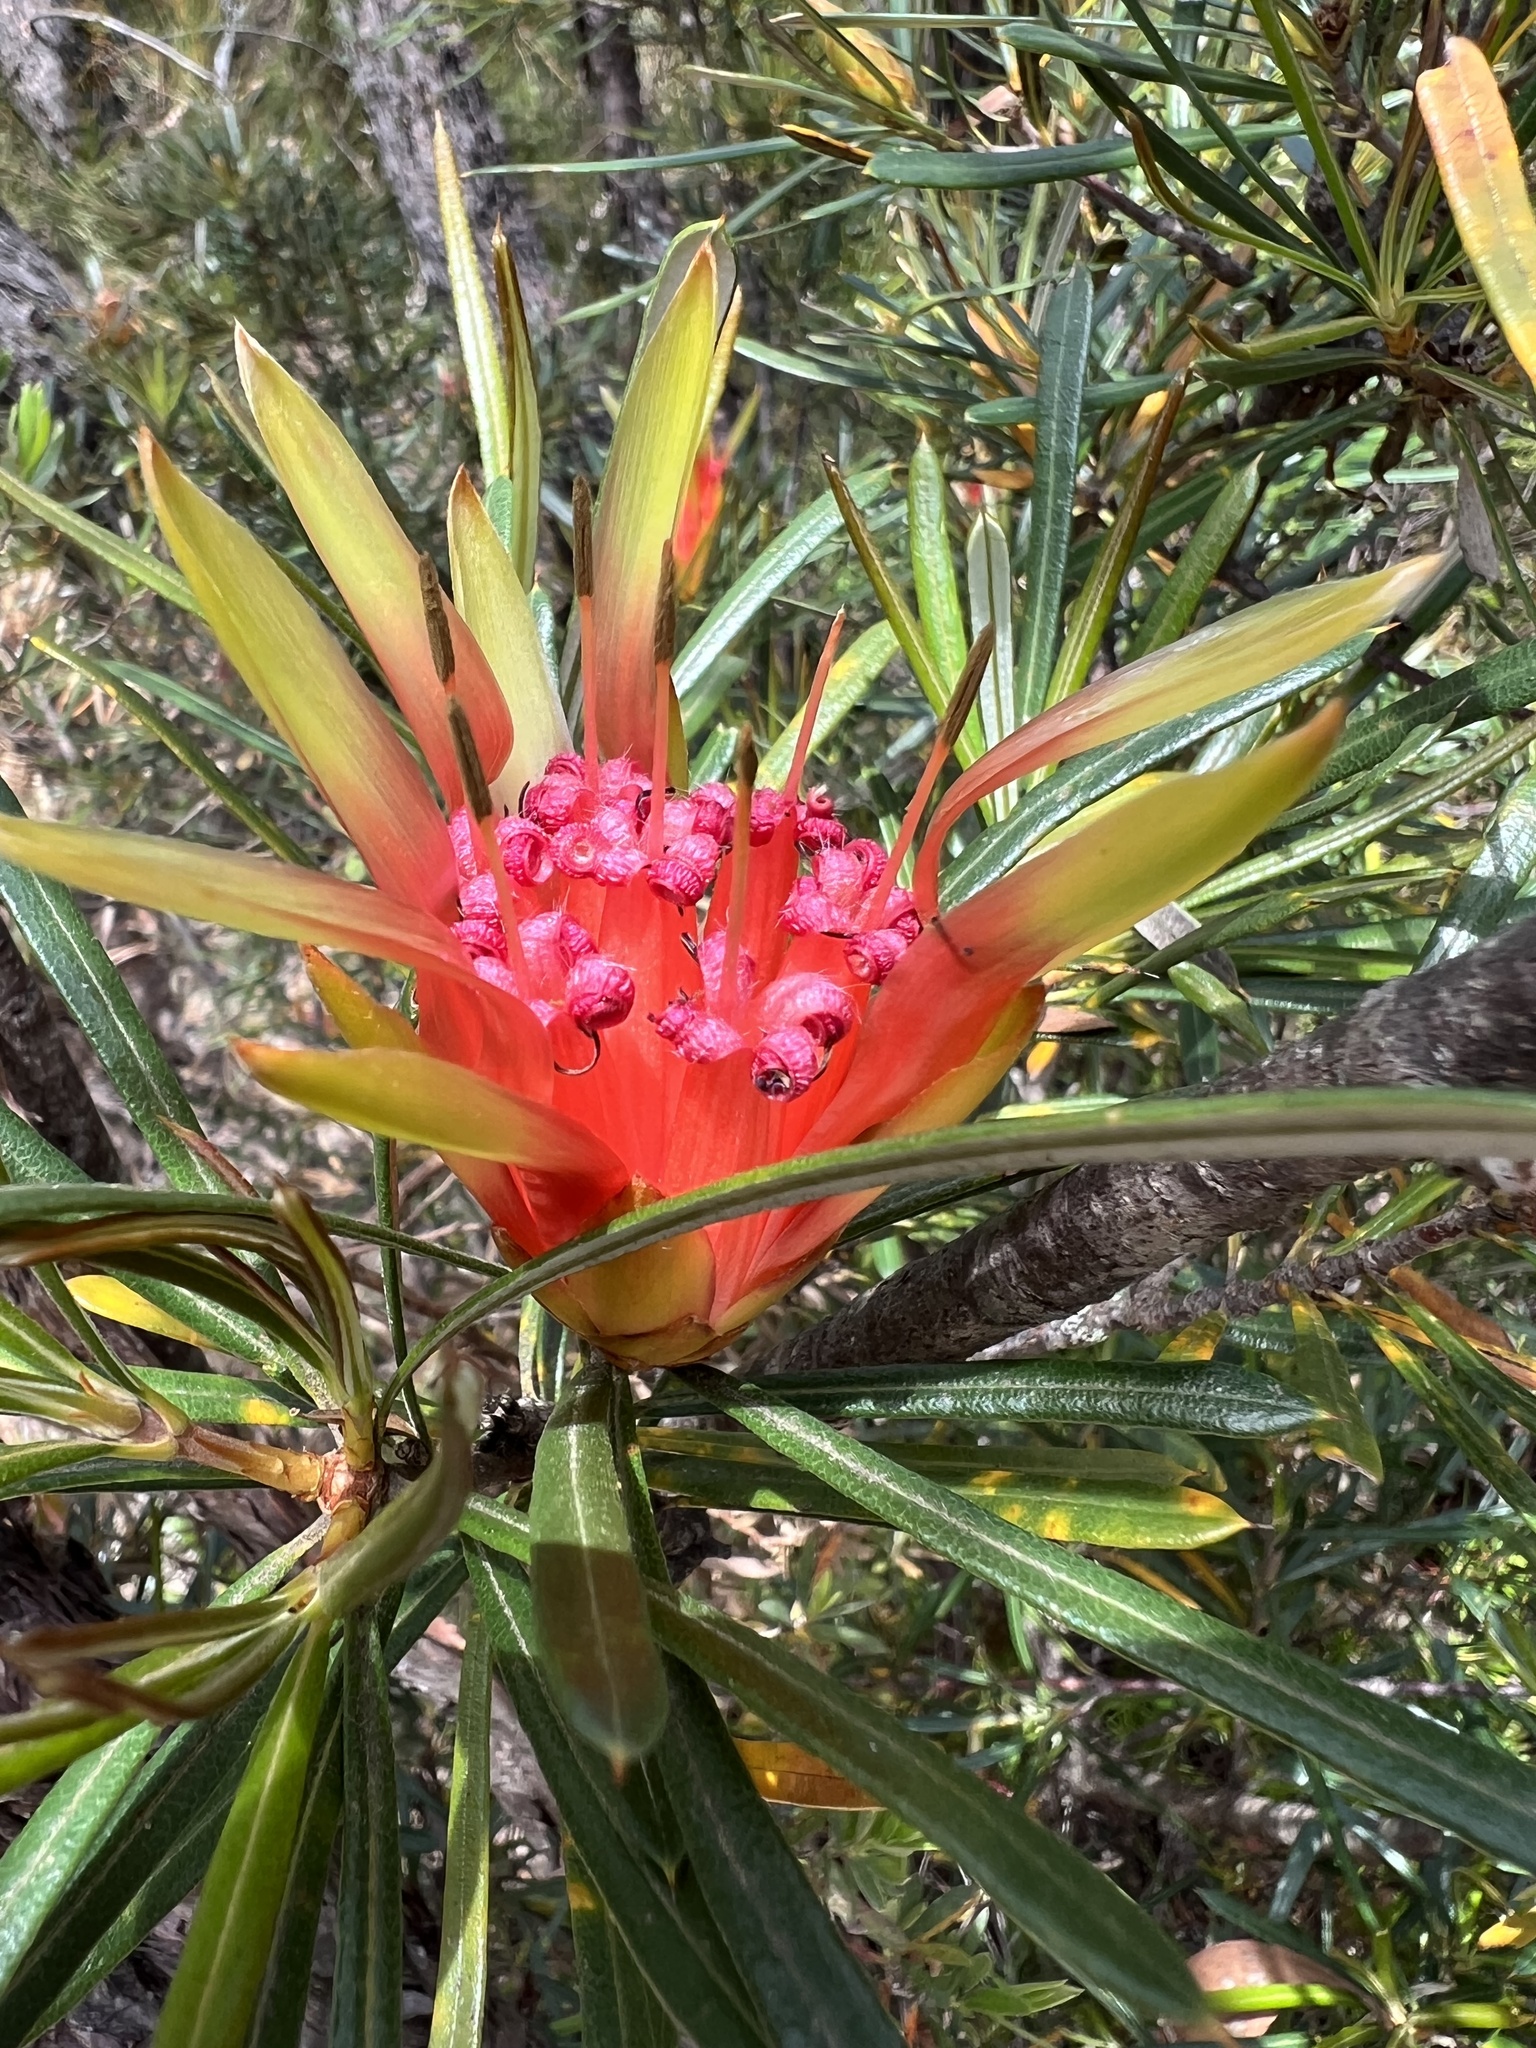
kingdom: Plantae
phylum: Tracheophyta
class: Magnoliopsida
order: Proteales
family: Proteaceae
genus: Lambertia
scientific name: Lambertia formosa
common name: Mountain-devil
